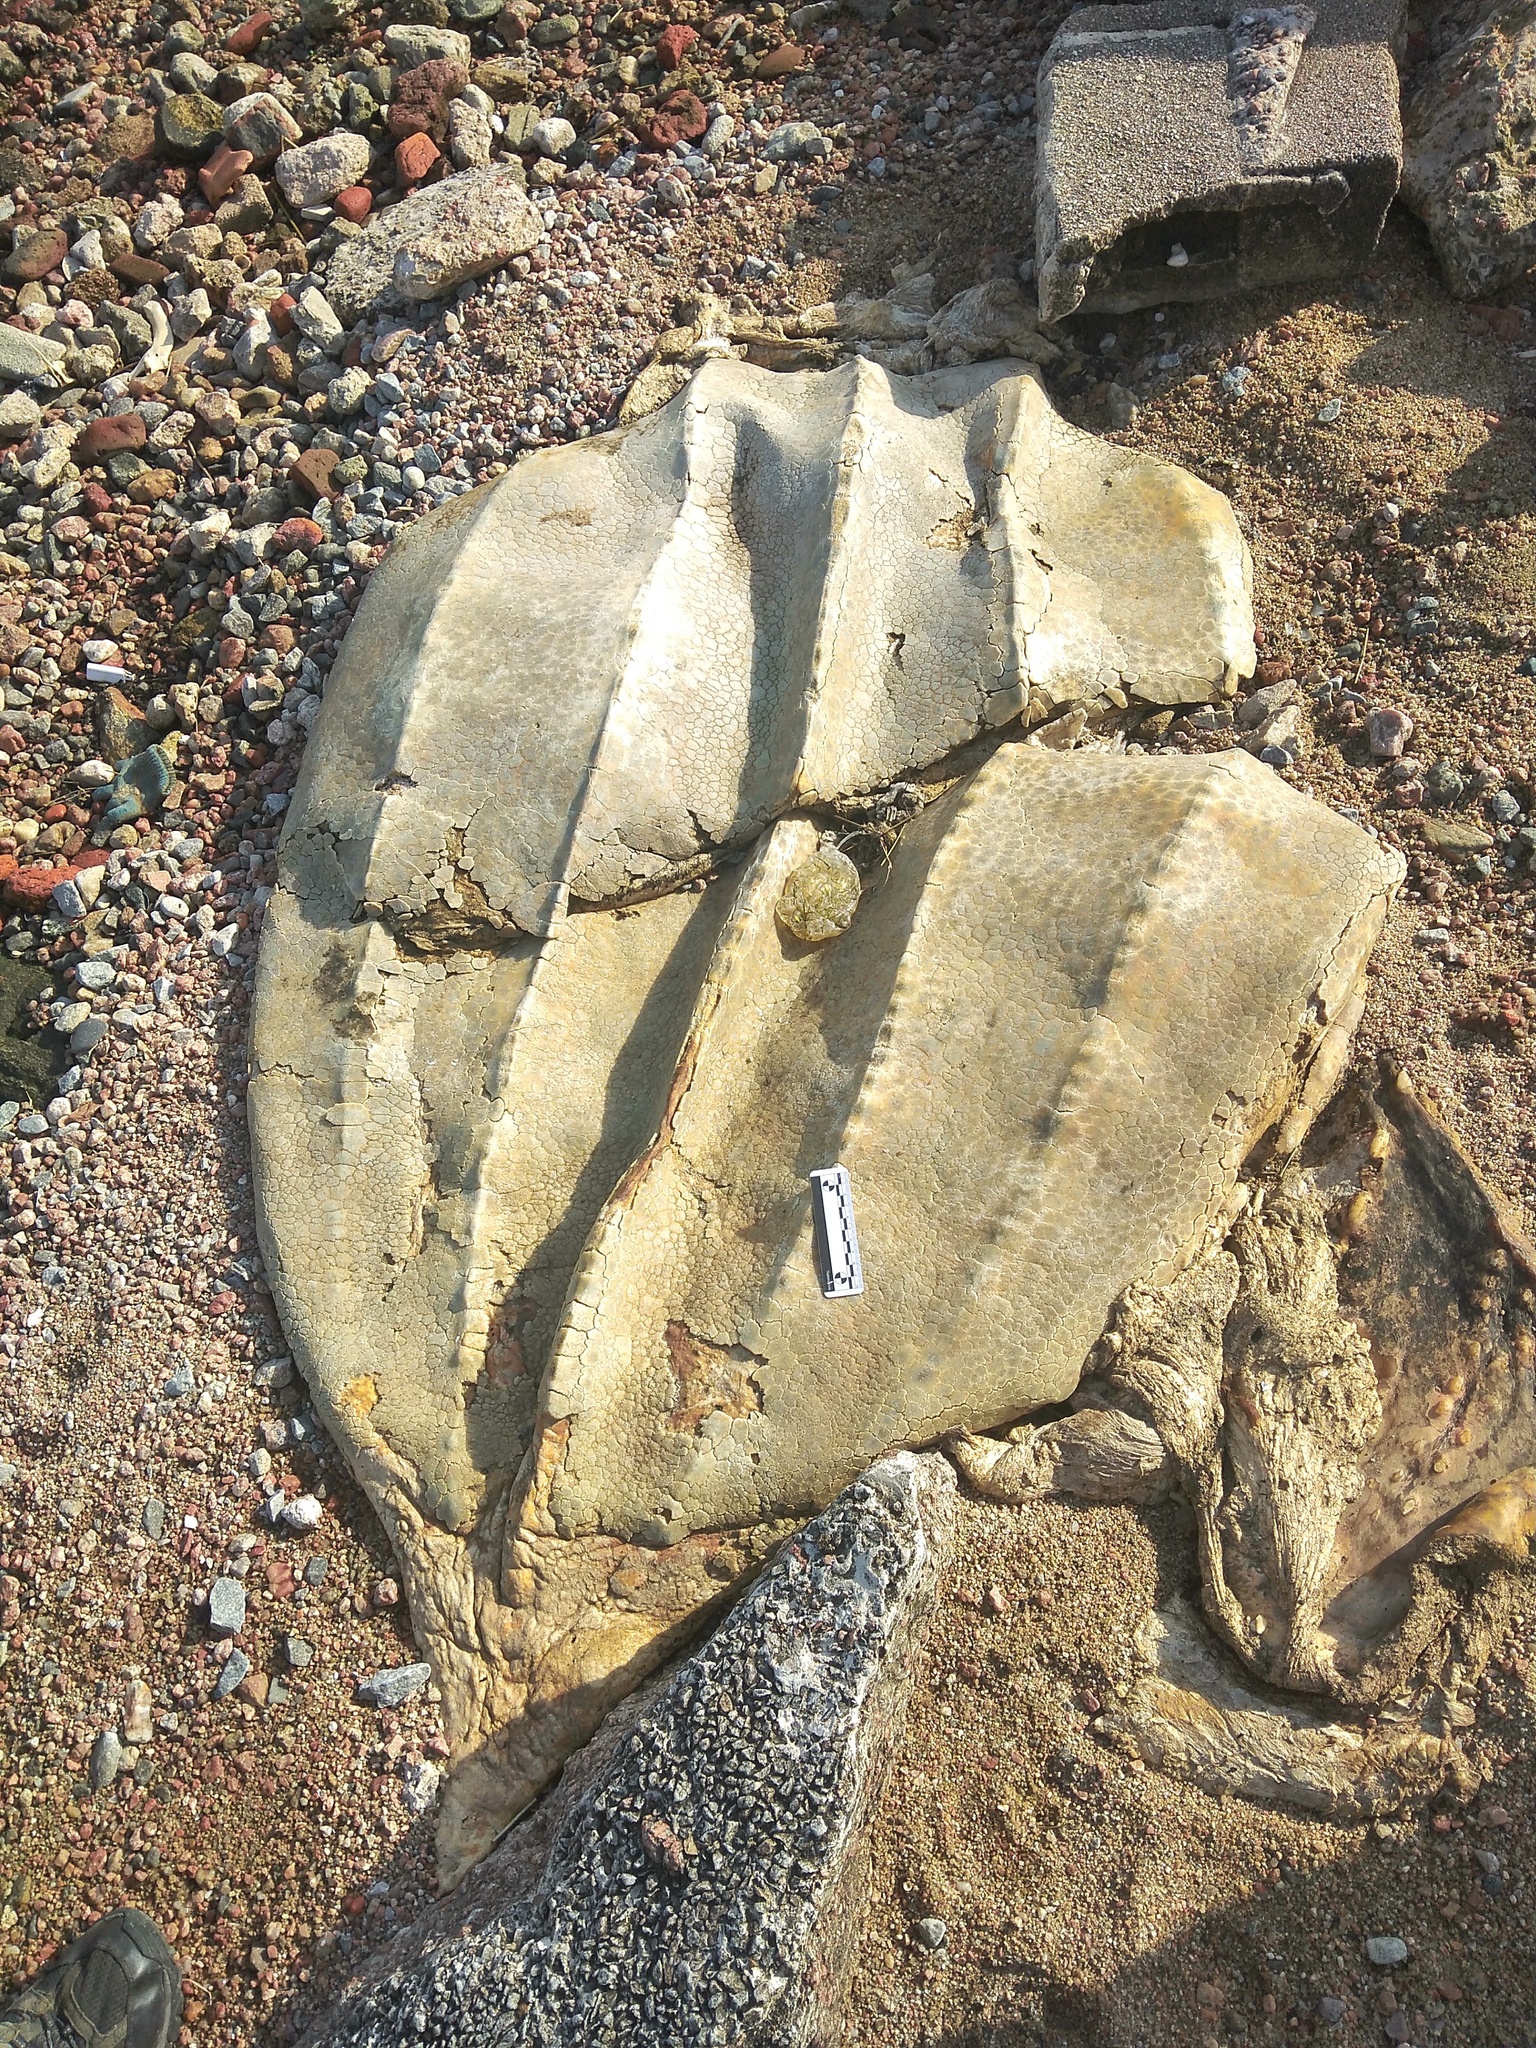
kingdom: Animalia
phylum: Chordata
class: Testudines
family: Dermochelyidae
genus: Dermochelys
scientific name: Dermochelys coriacea
